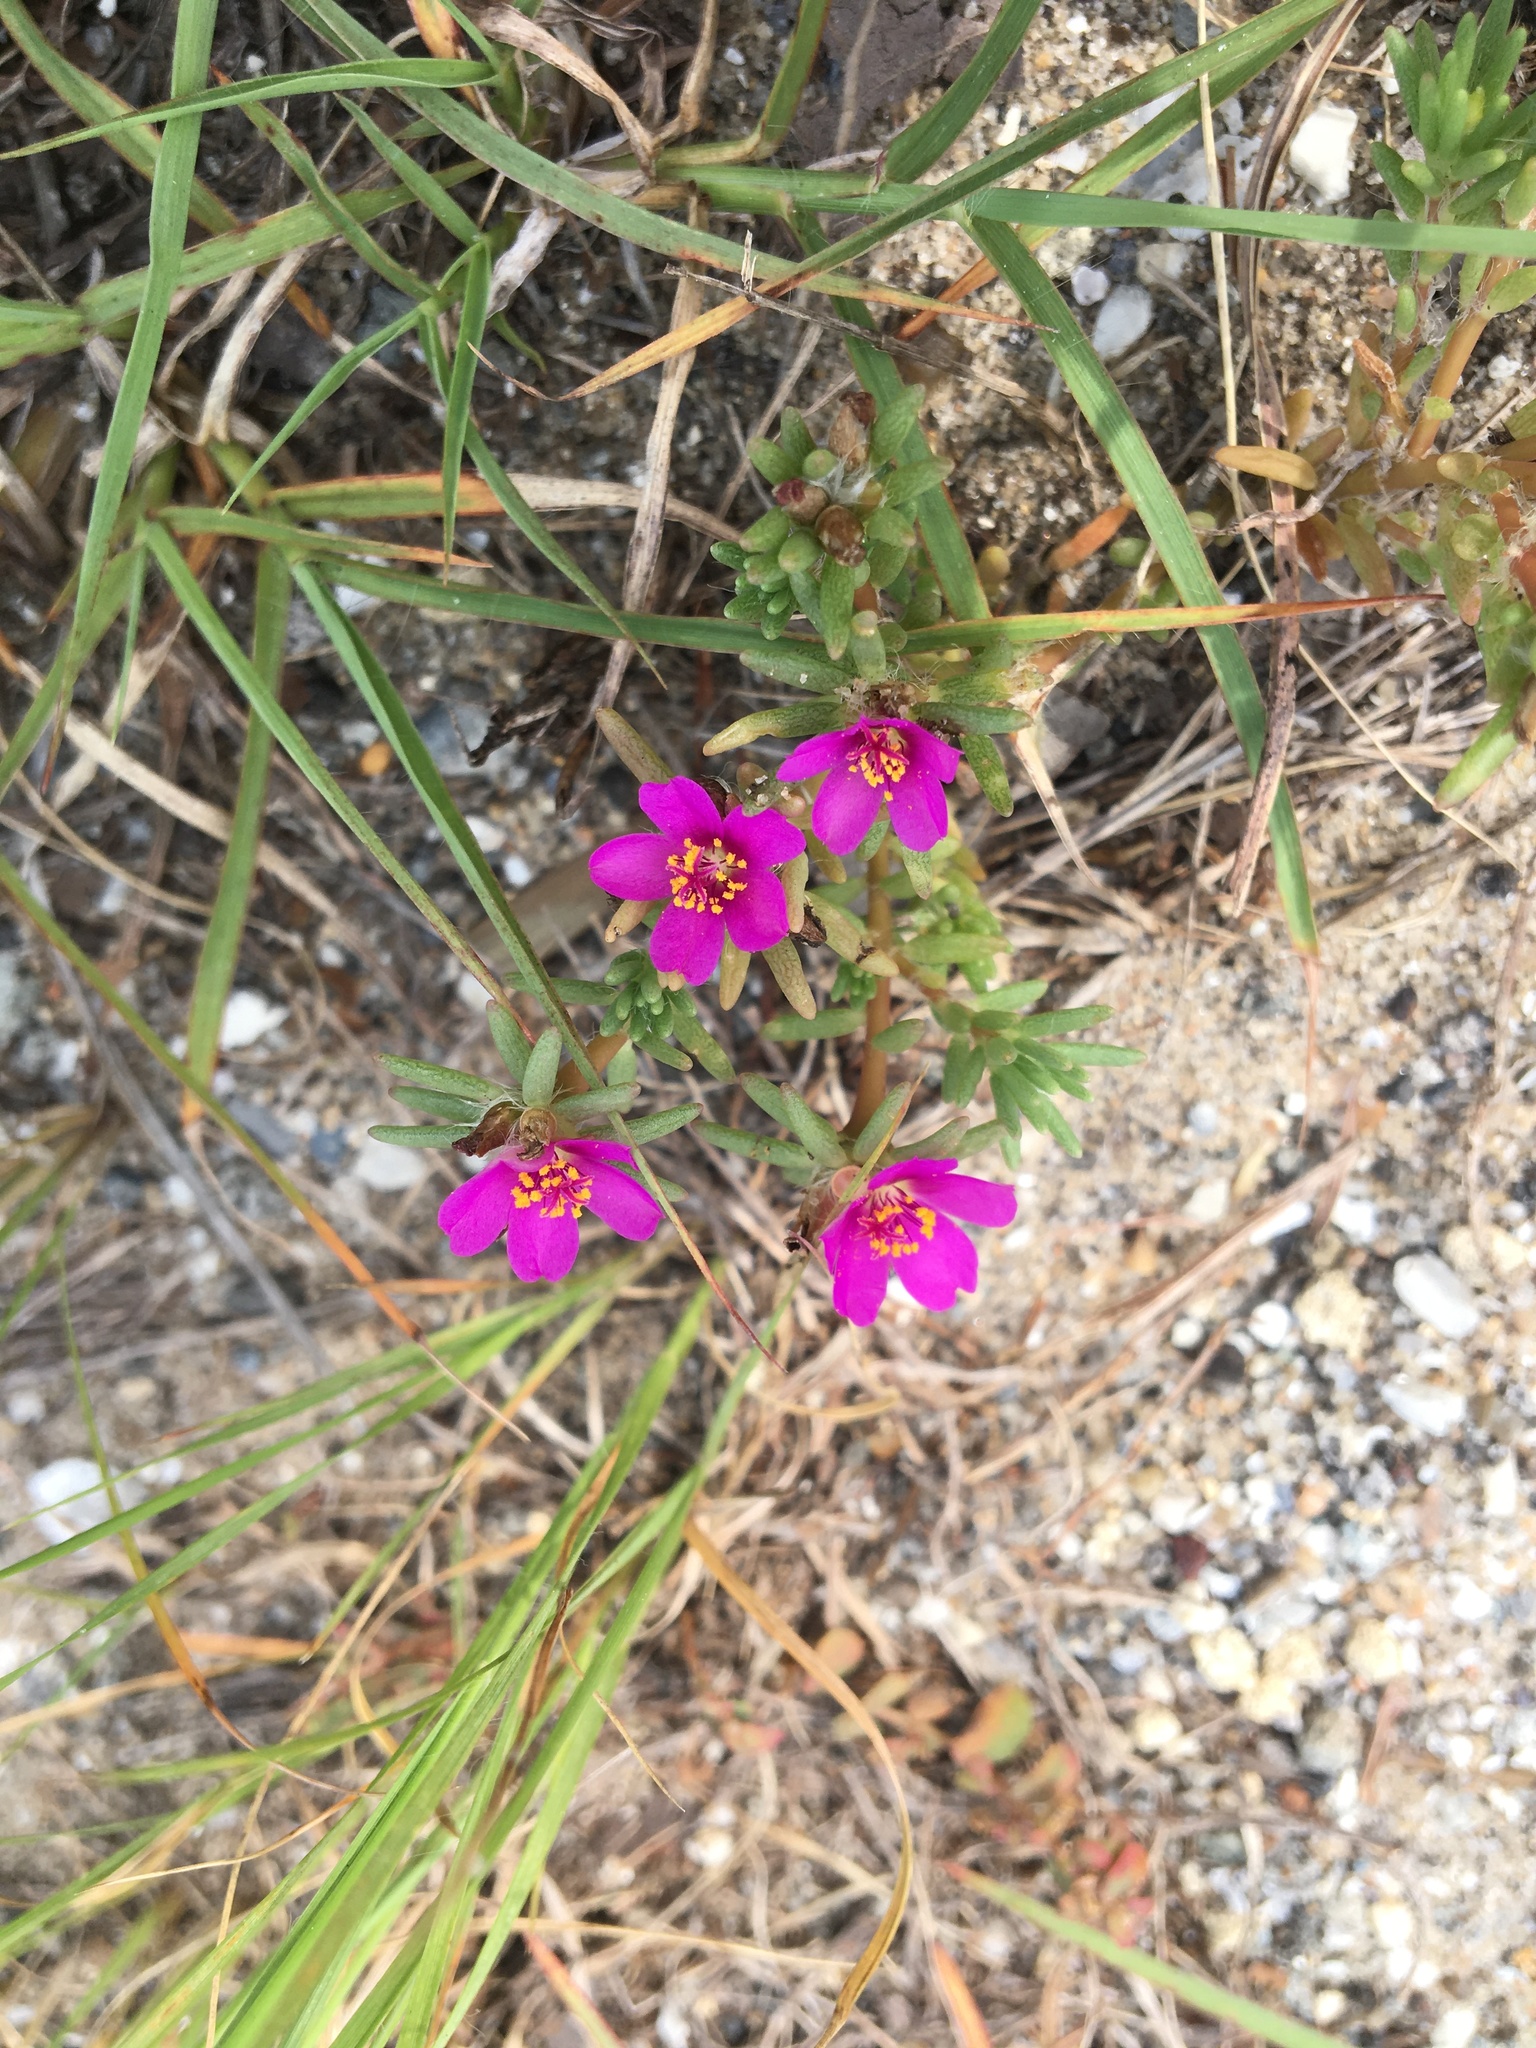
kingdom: Plantae
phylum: Tracheophyta
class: Magnoliopsida
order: Caryophyllales
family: Portulacaceae
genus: Portulaca
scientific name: Portulaca pilosa
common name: Kiss me quick
